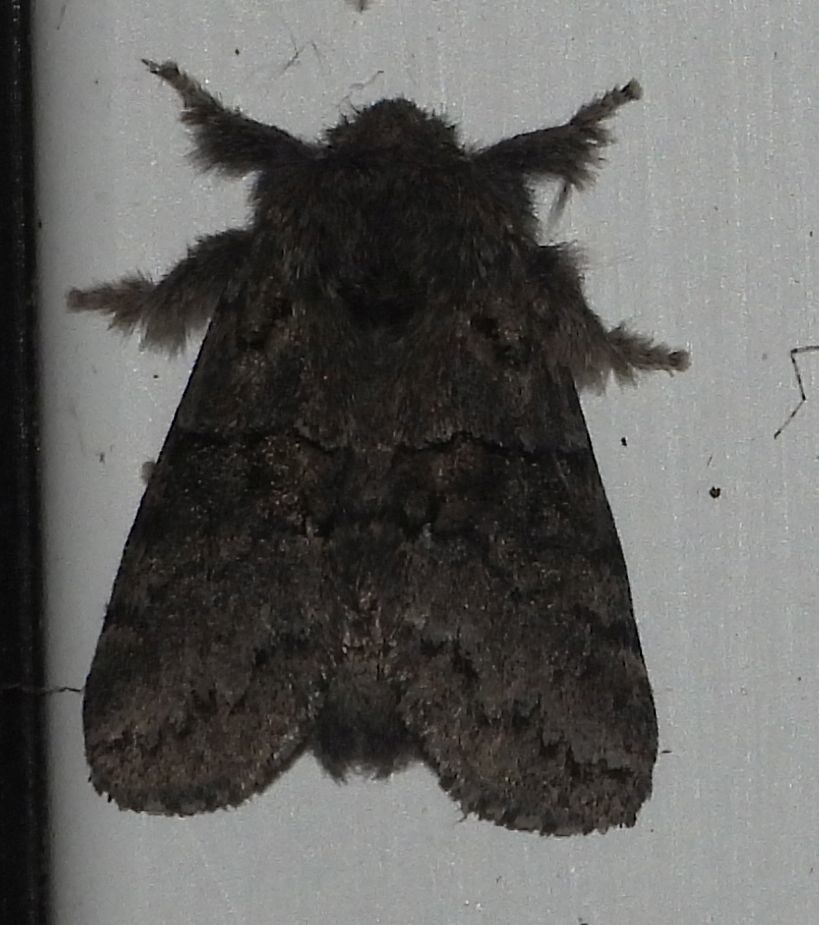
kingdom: Animalia
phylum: Arthropoda
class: Insecta
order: Lepidoptera
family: Notodontidae
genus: Gluphisia
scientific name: Gluphisia septentrionis
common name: Common gluphisia
